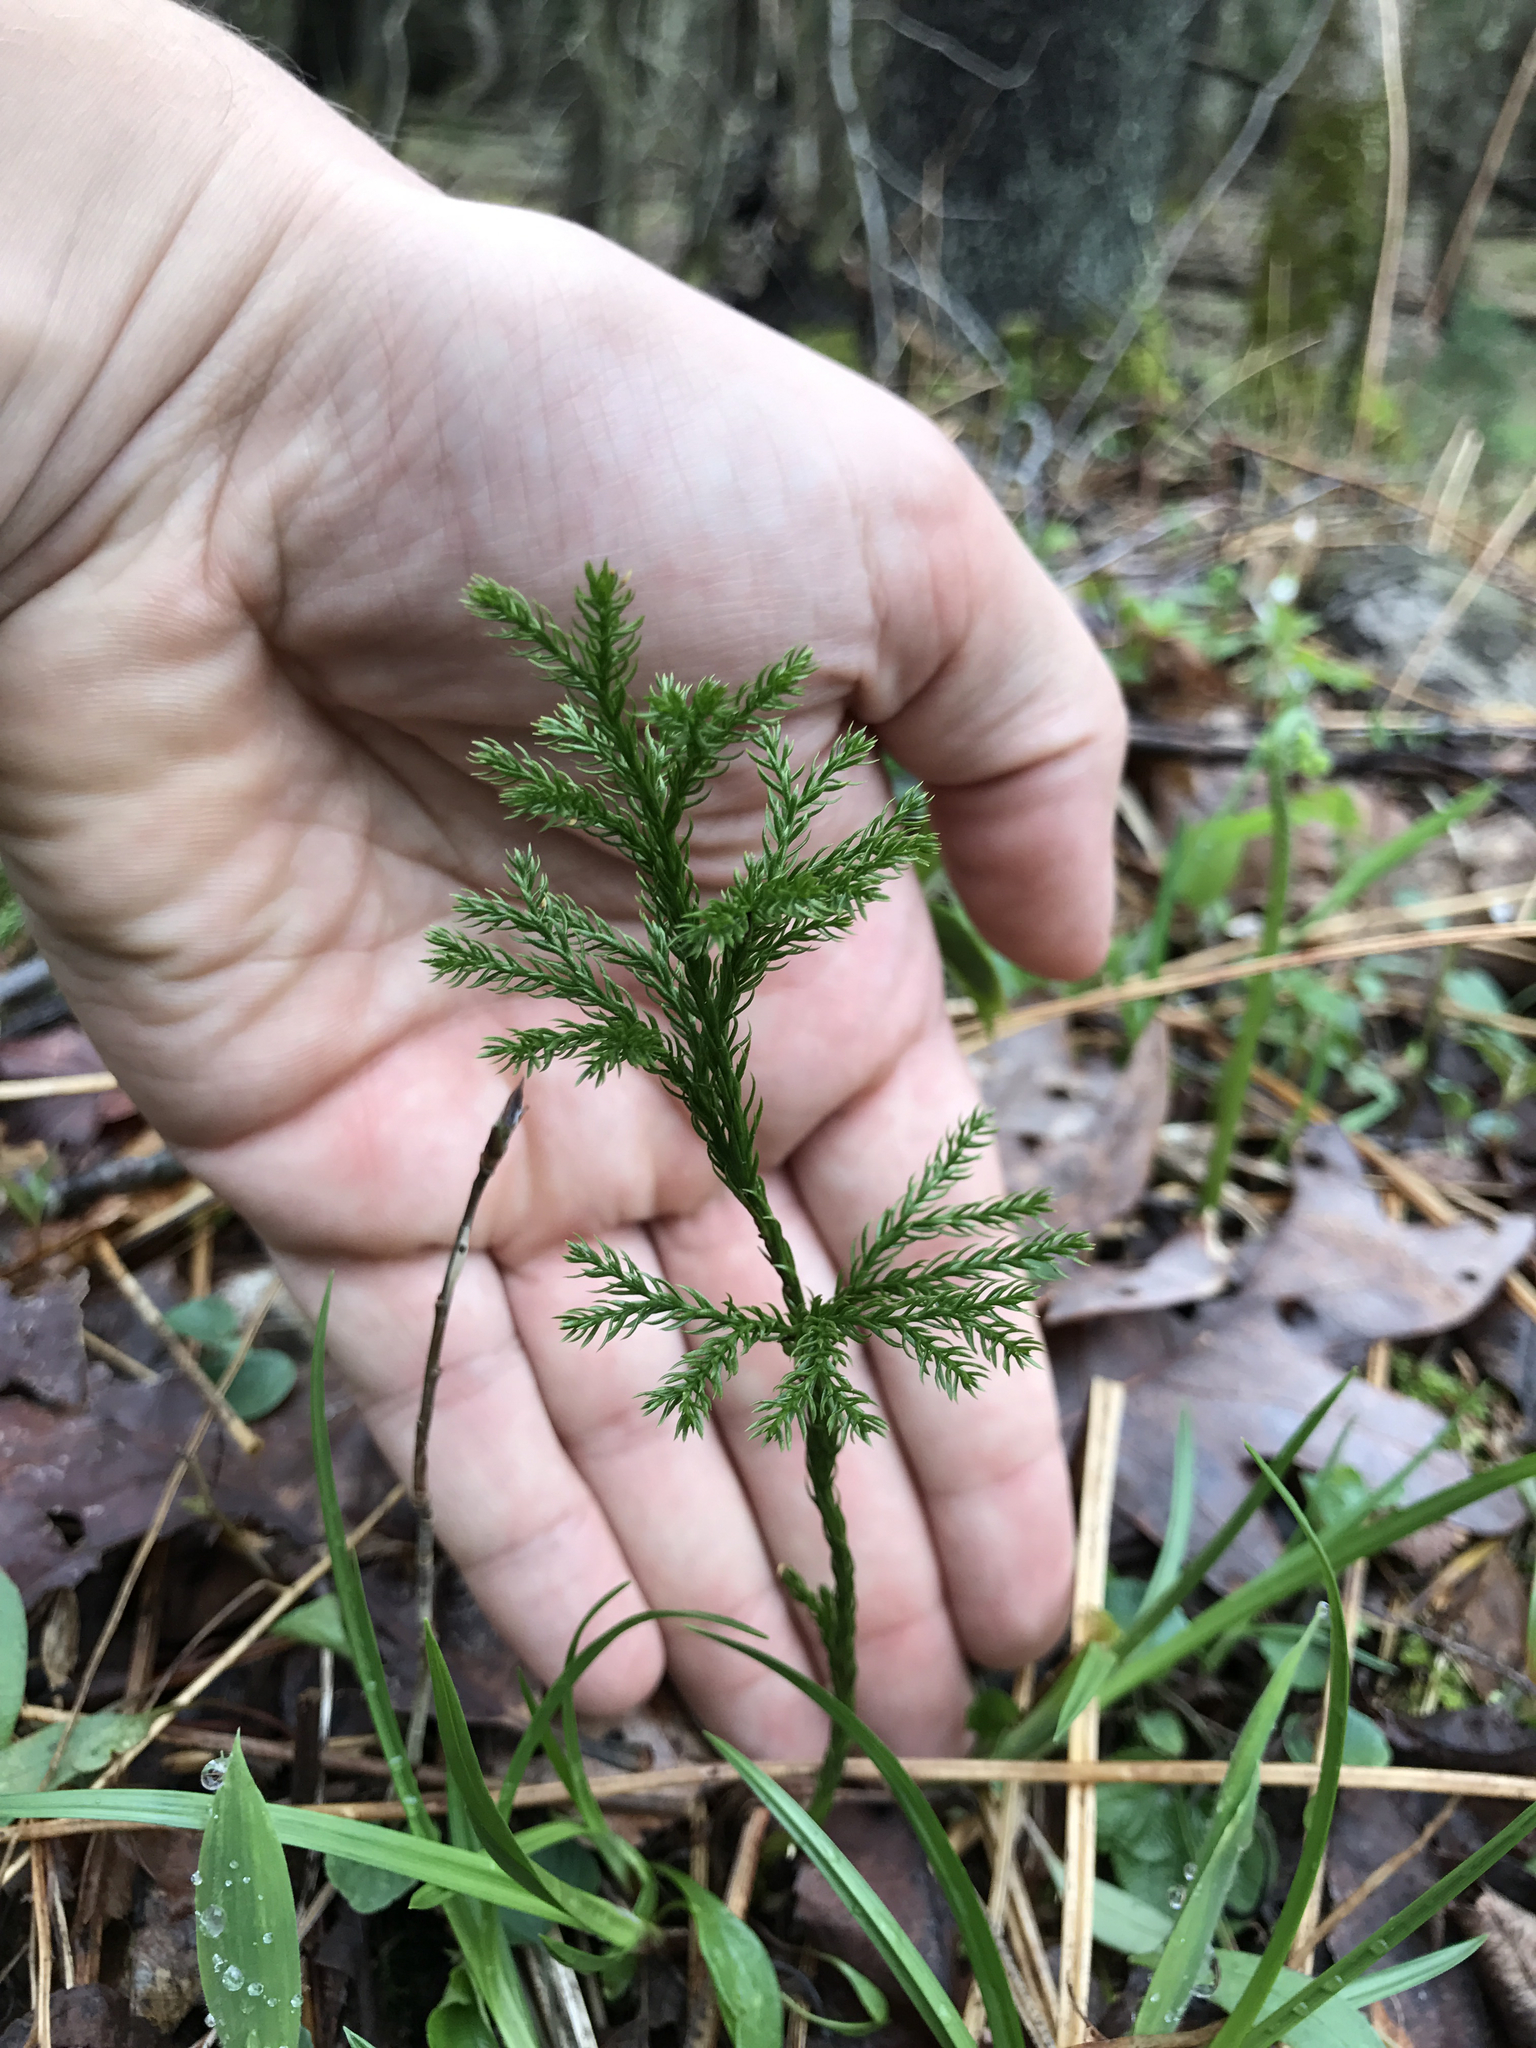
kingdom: Plantae
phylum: Tracheophyta
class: Lycopodiopsida
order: Lycopodiales
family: Lycopodiaceae
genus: Dendrolycopodium
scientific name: Dendrolycopodium hickeyi
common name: Hickey's clubmoss
